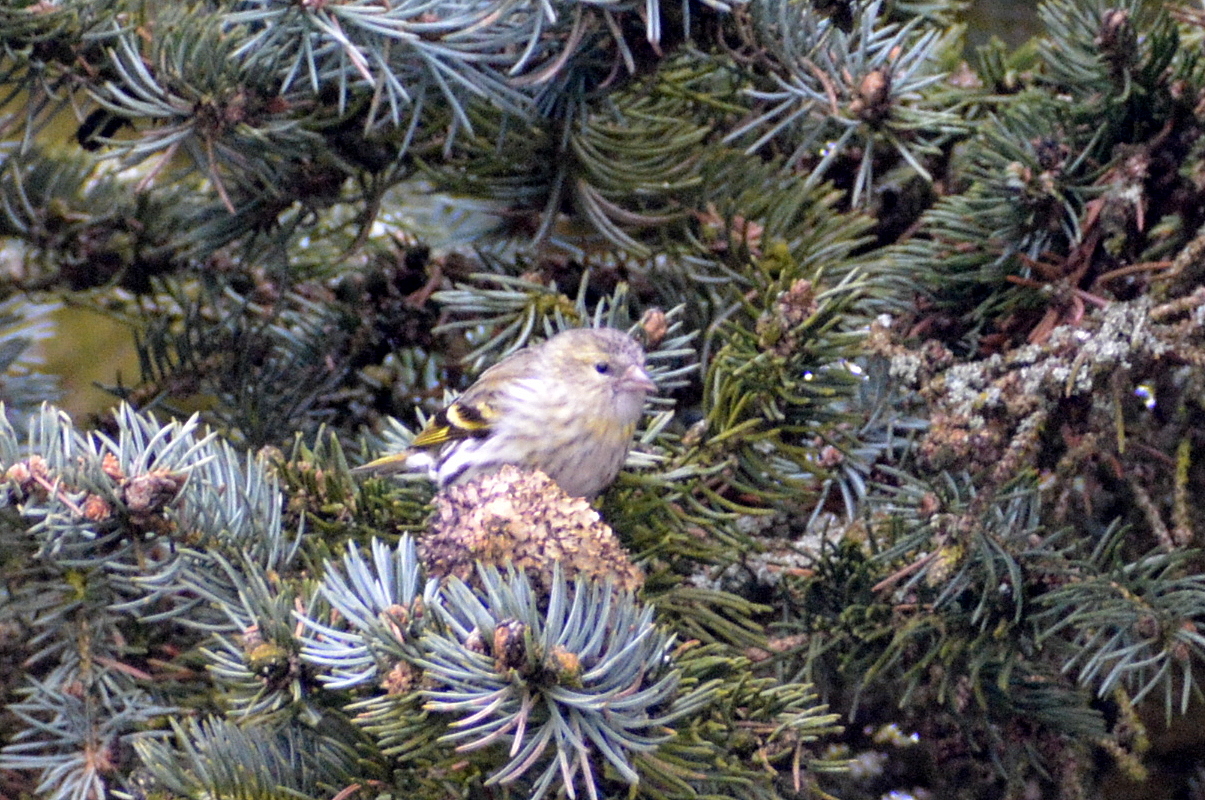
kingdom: Animalia
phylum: Chordata
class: Aves
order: Passeriformes
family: Fringillidae
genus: Spinus
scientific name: Spinus spinus
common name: Eurasian siskin
